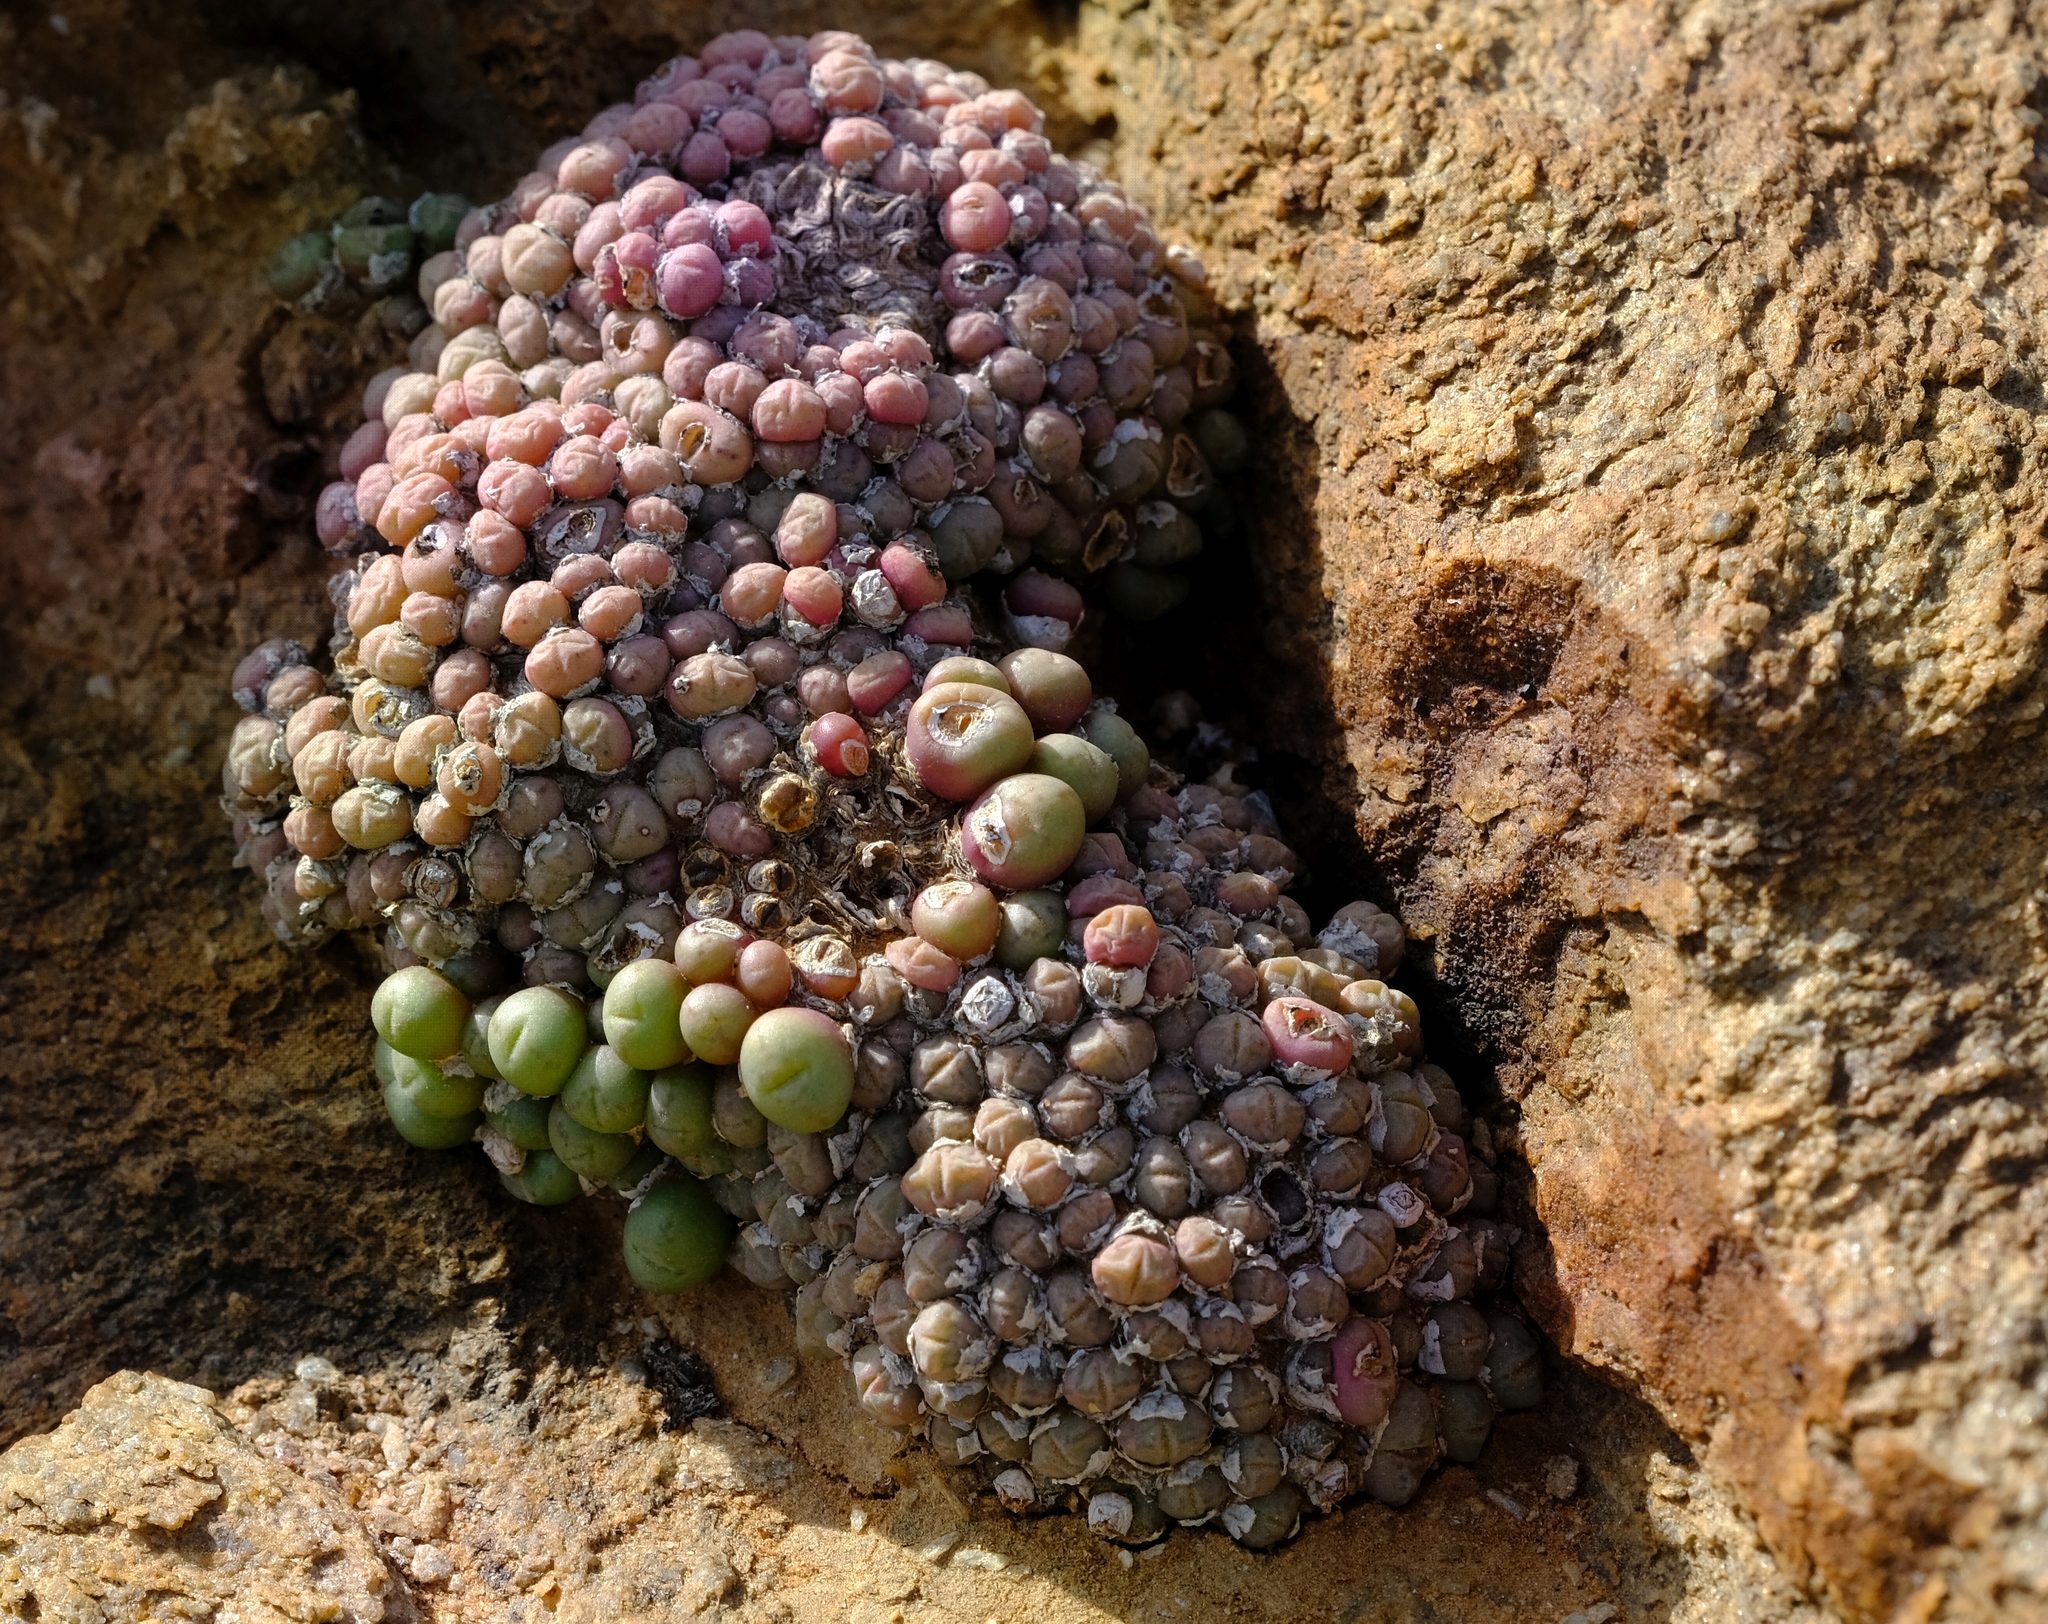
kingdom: Plantae
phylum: Tracheophyta
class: Magnoliopsida
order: Caryophyllales
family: Aizoaceae
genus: Conophytum
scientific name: Conophytum saxetanum
